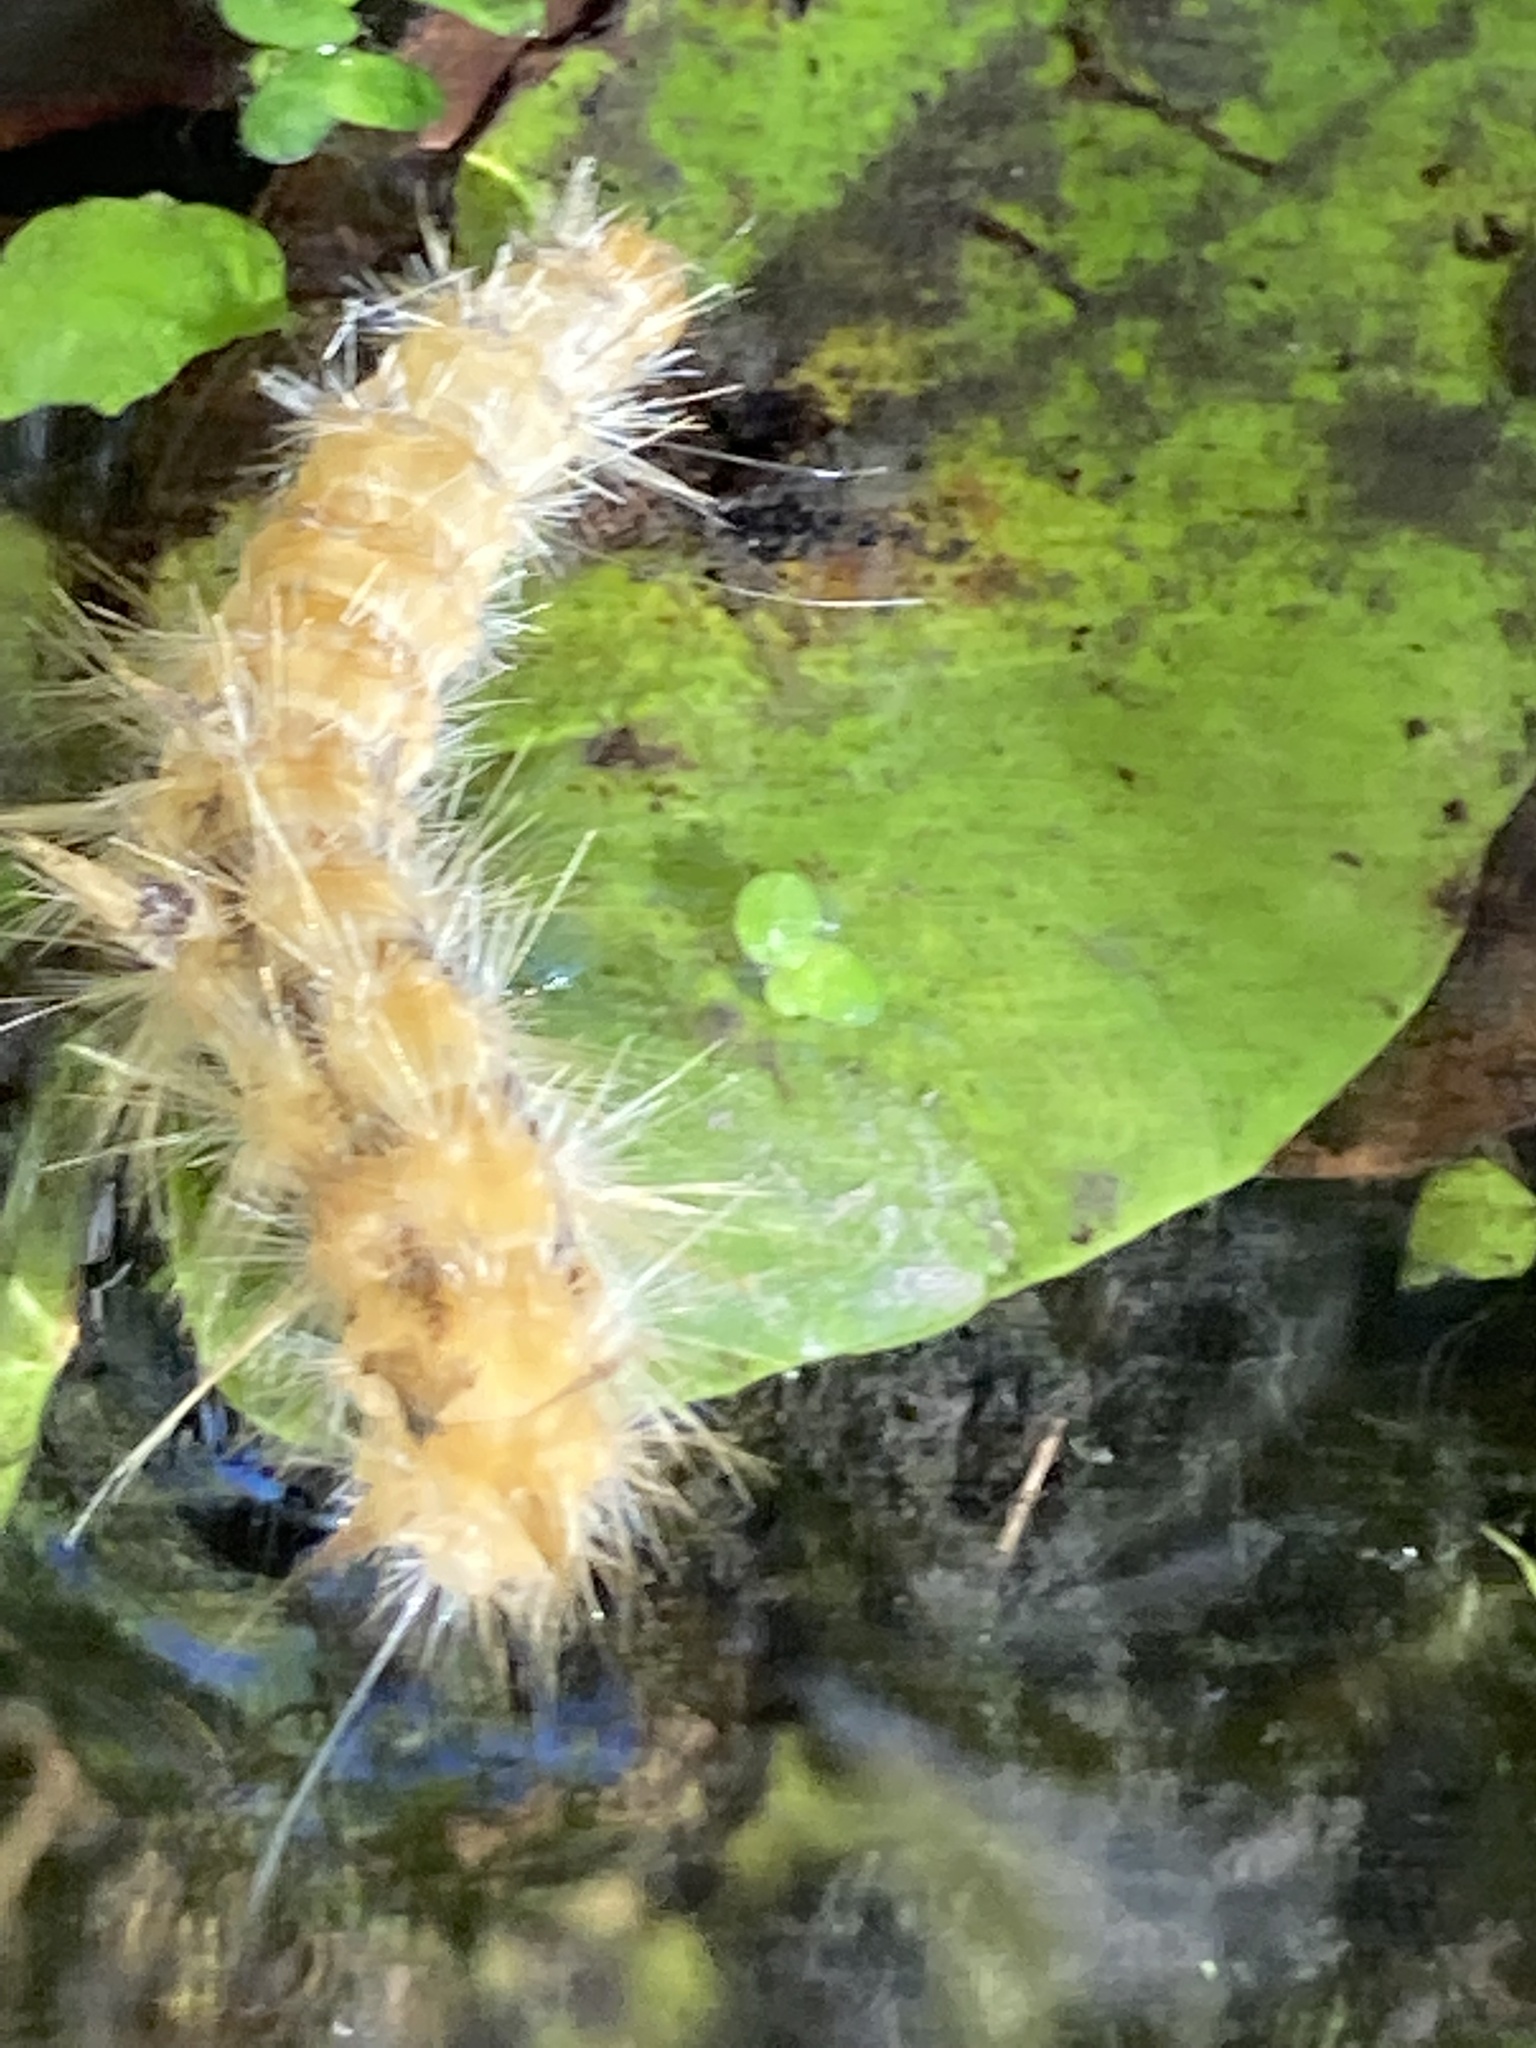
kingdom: Animalia
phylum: Arthropoda
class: Insecta
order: Lepidoptera
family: Erebidae
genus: Spilosoma
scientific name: Spilosoma virginica
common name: Virginia tiger moth
